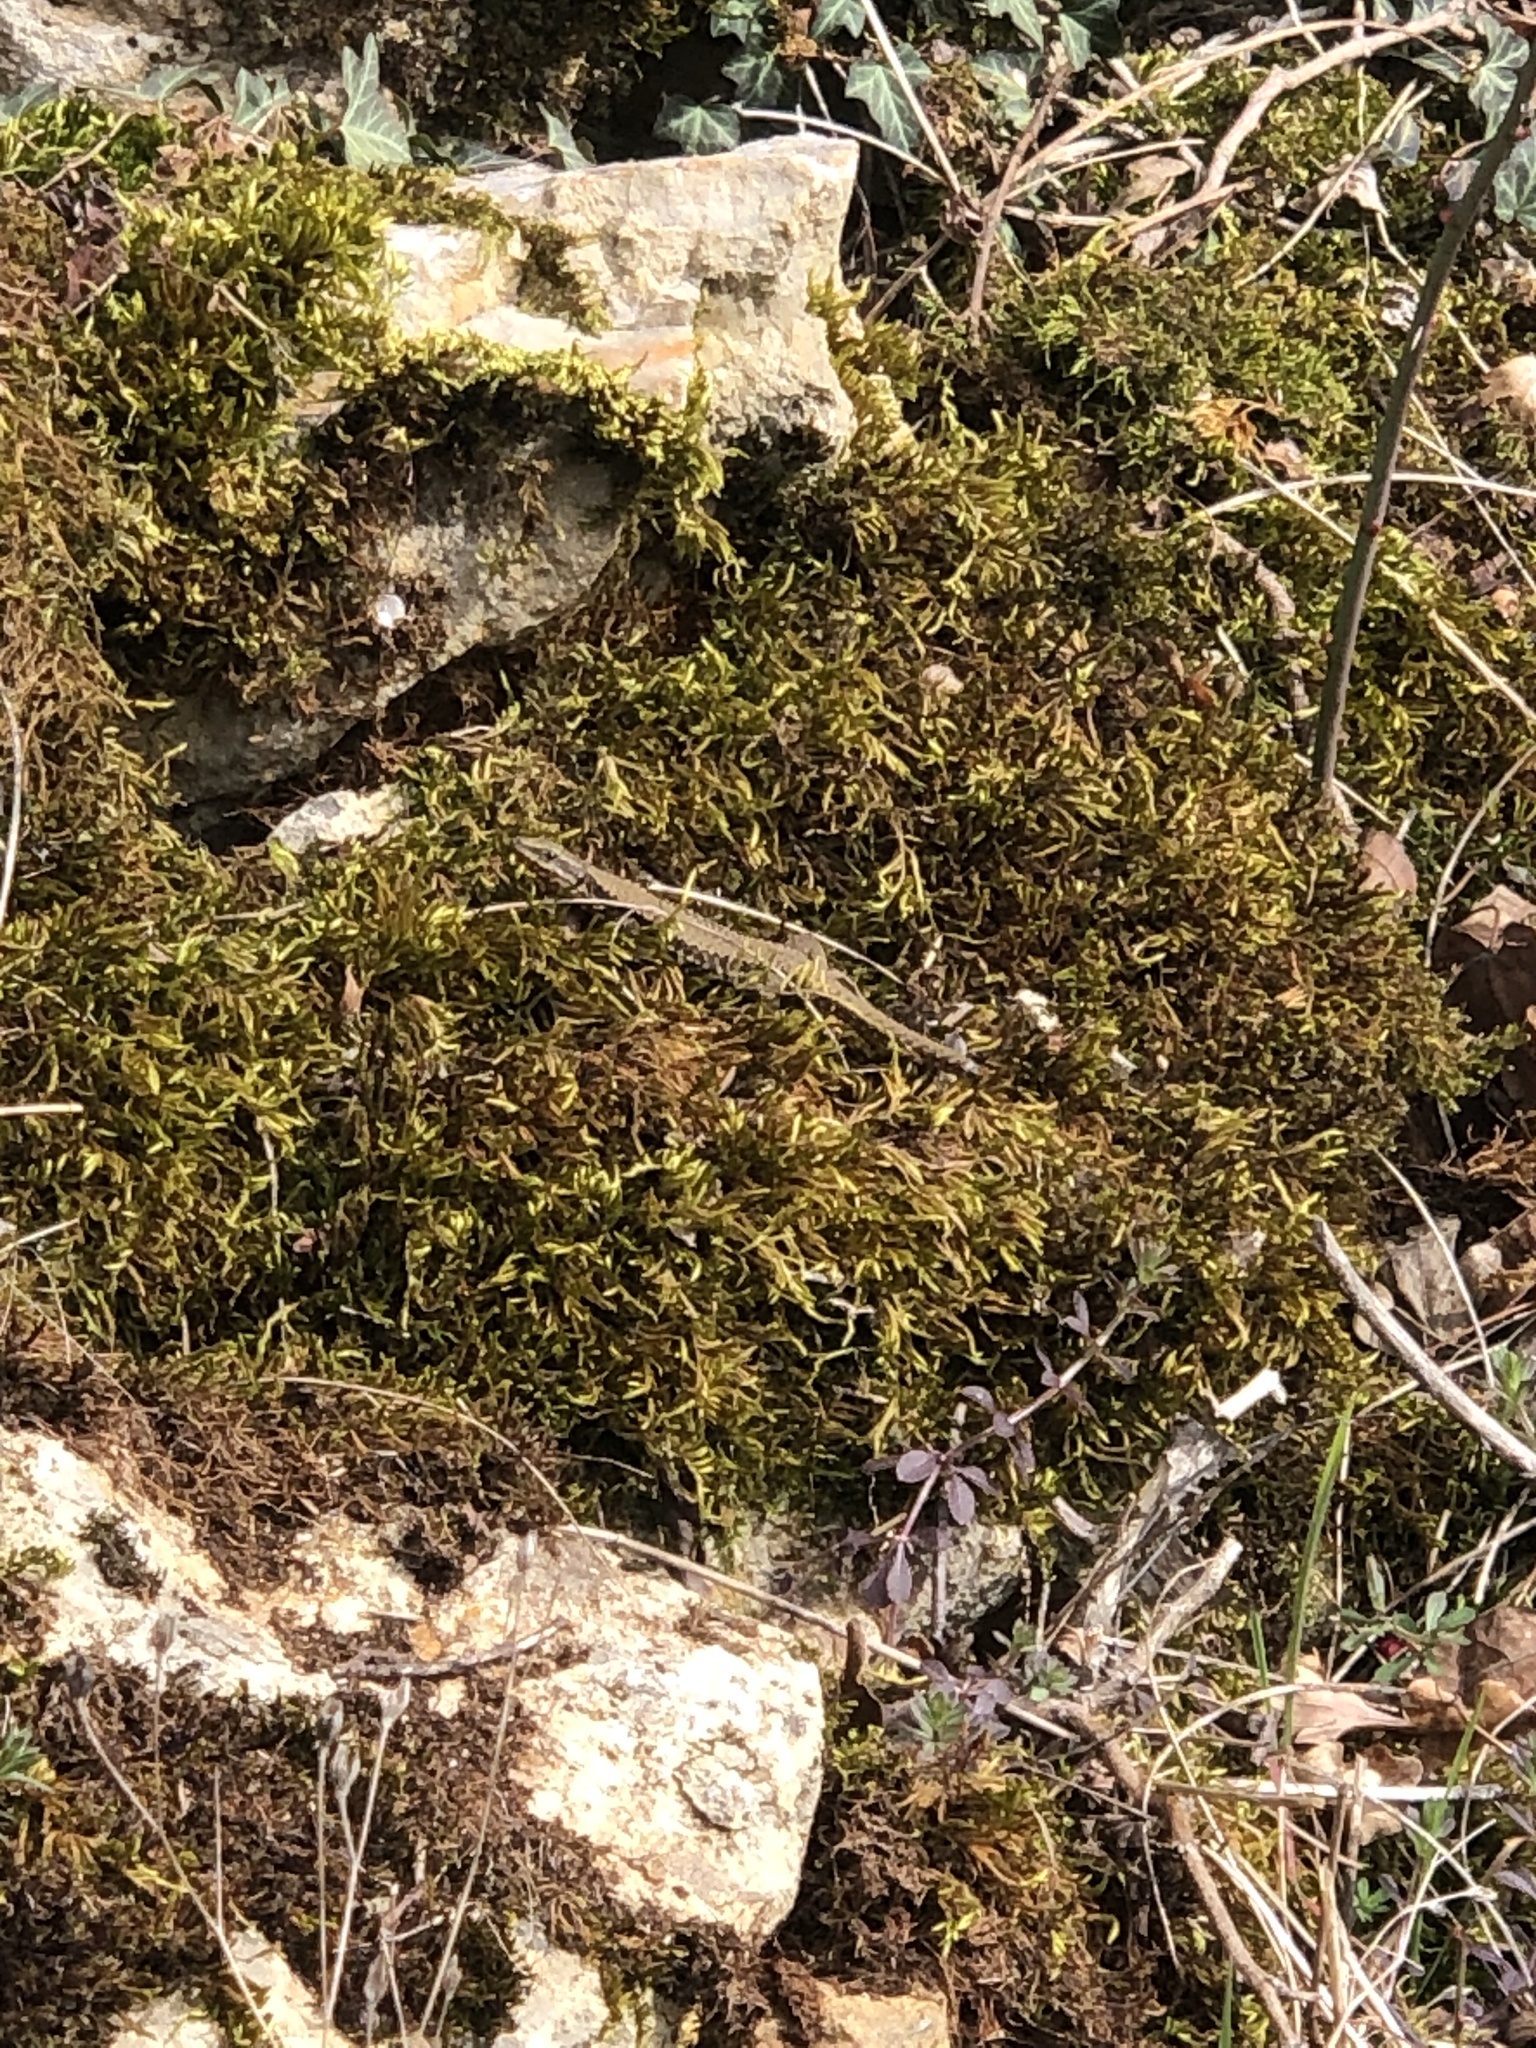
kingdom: Animalia
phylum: Chordata
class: Squamata
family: Lacertidae
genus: Podarcis
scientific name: Podarcis muralis
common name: Common wall lizard
